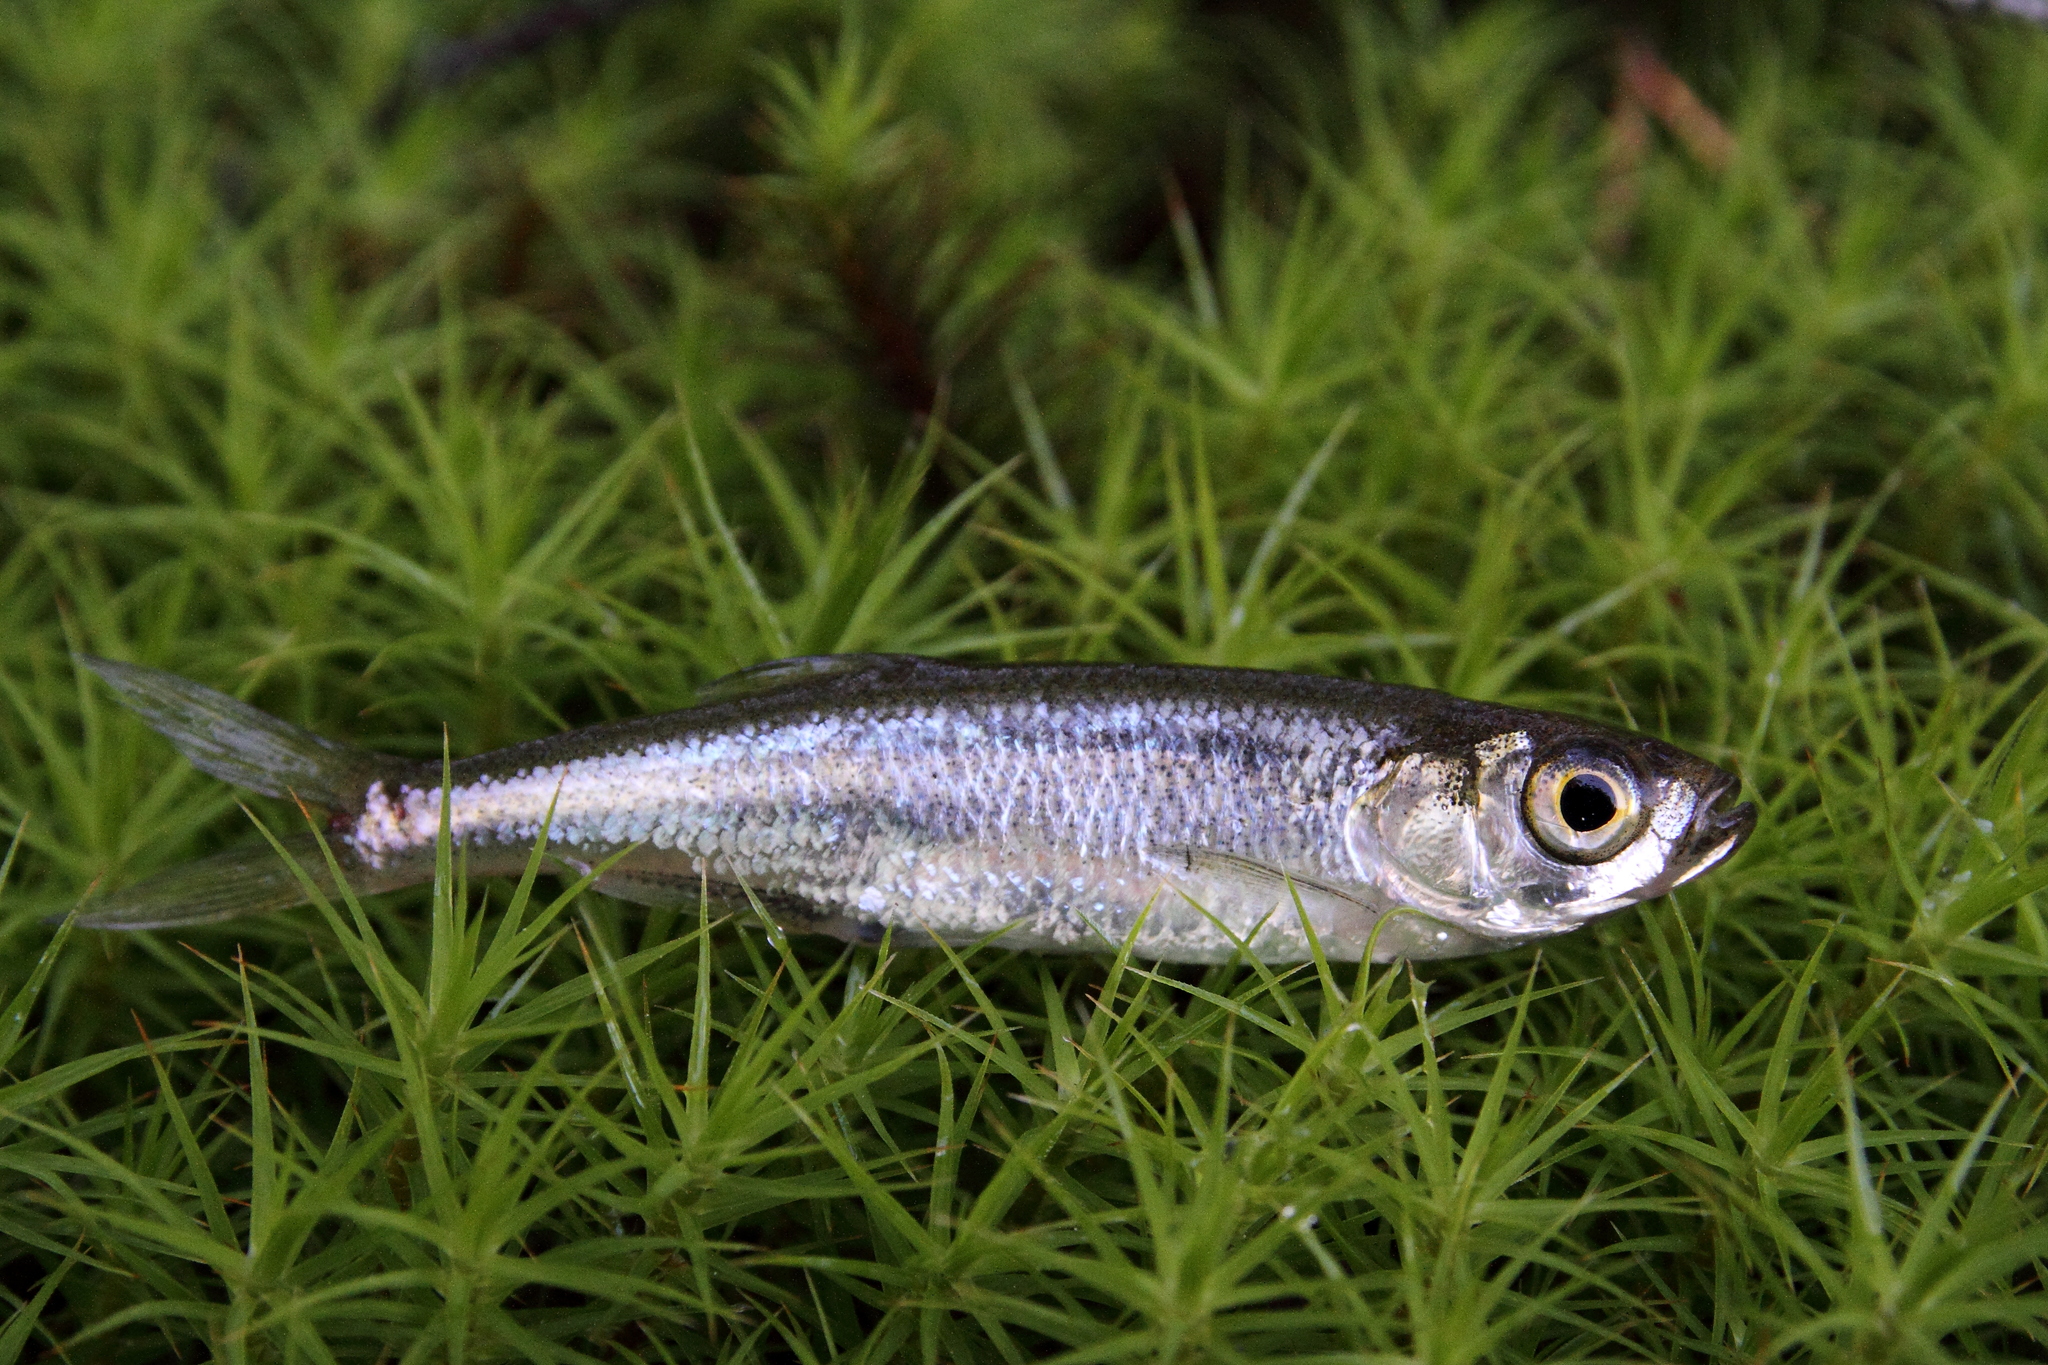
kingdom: Animalia
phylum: Chordata
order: Cypriniformes
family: Cyprinidae
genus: Leucaspius
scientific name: Leucaspius delineatus
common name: Sunbleak
